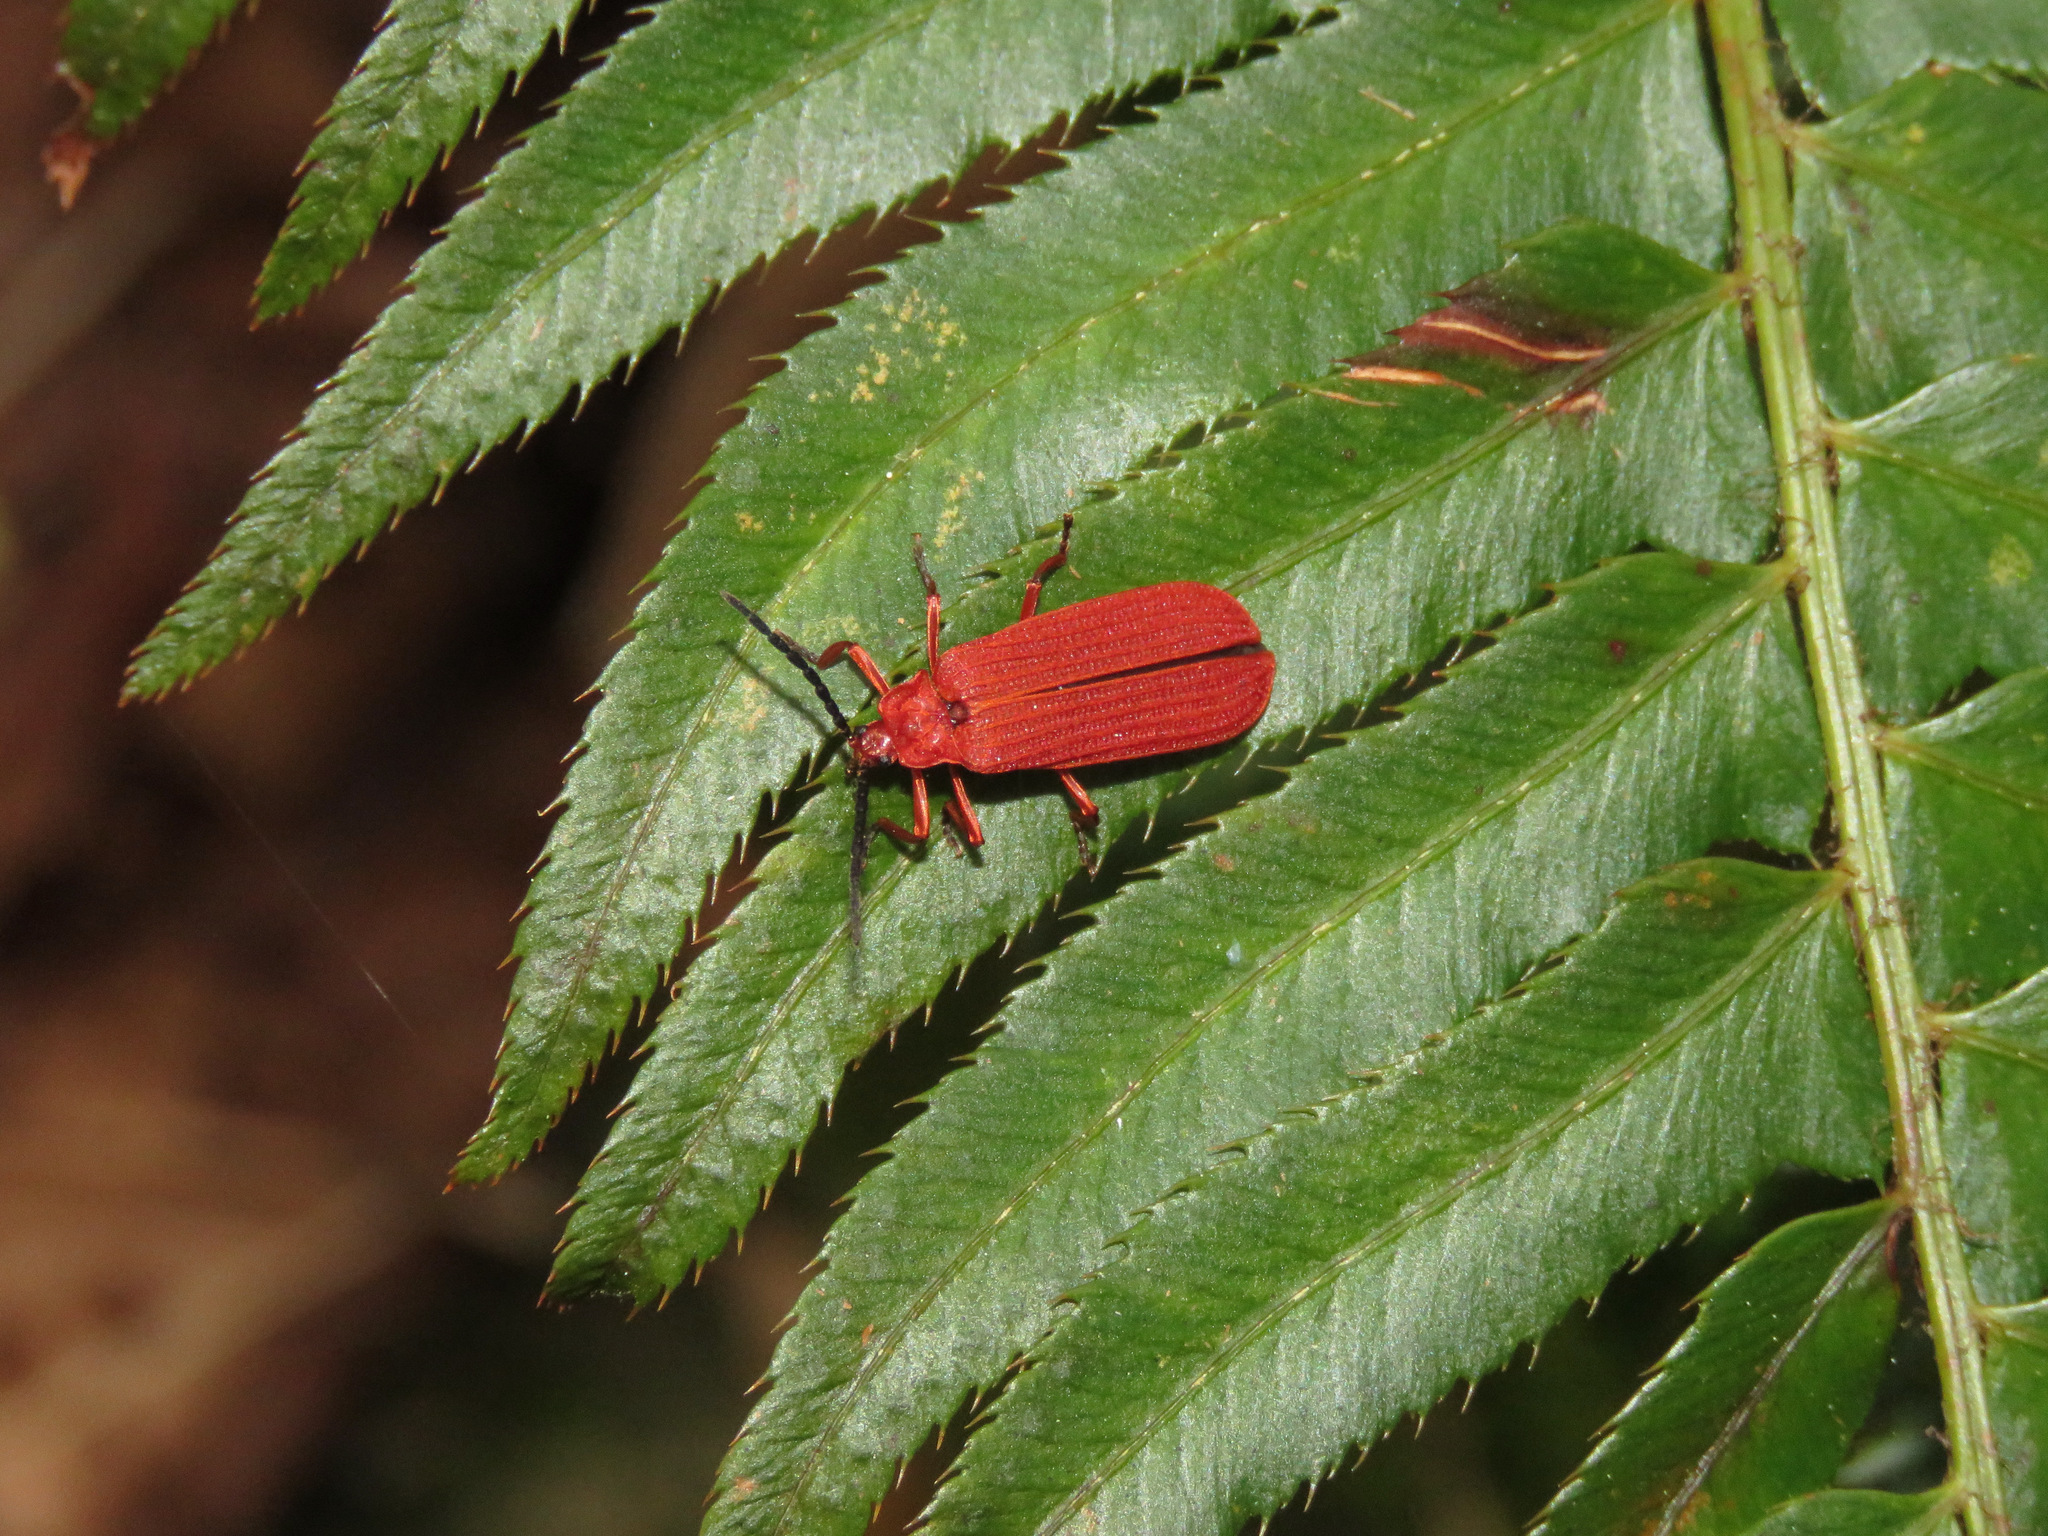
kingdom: Animalia
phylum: Arthropoda
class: Insecta
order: Coleoptera
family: Lycidae
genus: Punicealis
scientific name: Punicealis hamata
